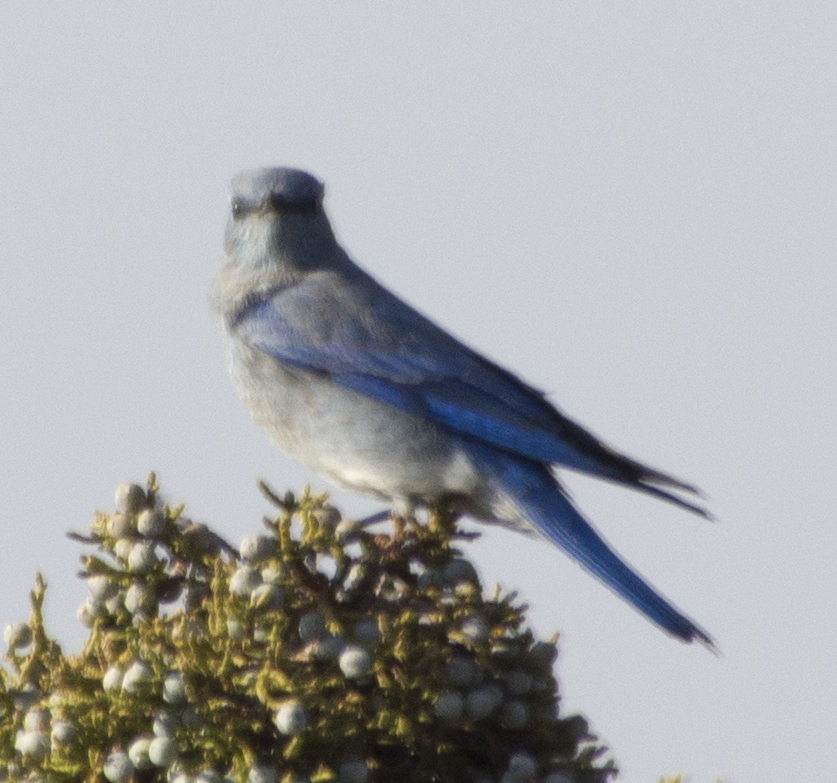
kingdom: Animalia
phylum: Chordata
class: Aves
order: Passeriformes
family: Turdidae
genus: Sialia
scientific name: Sialia currucoides
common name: Mountain bluebird
